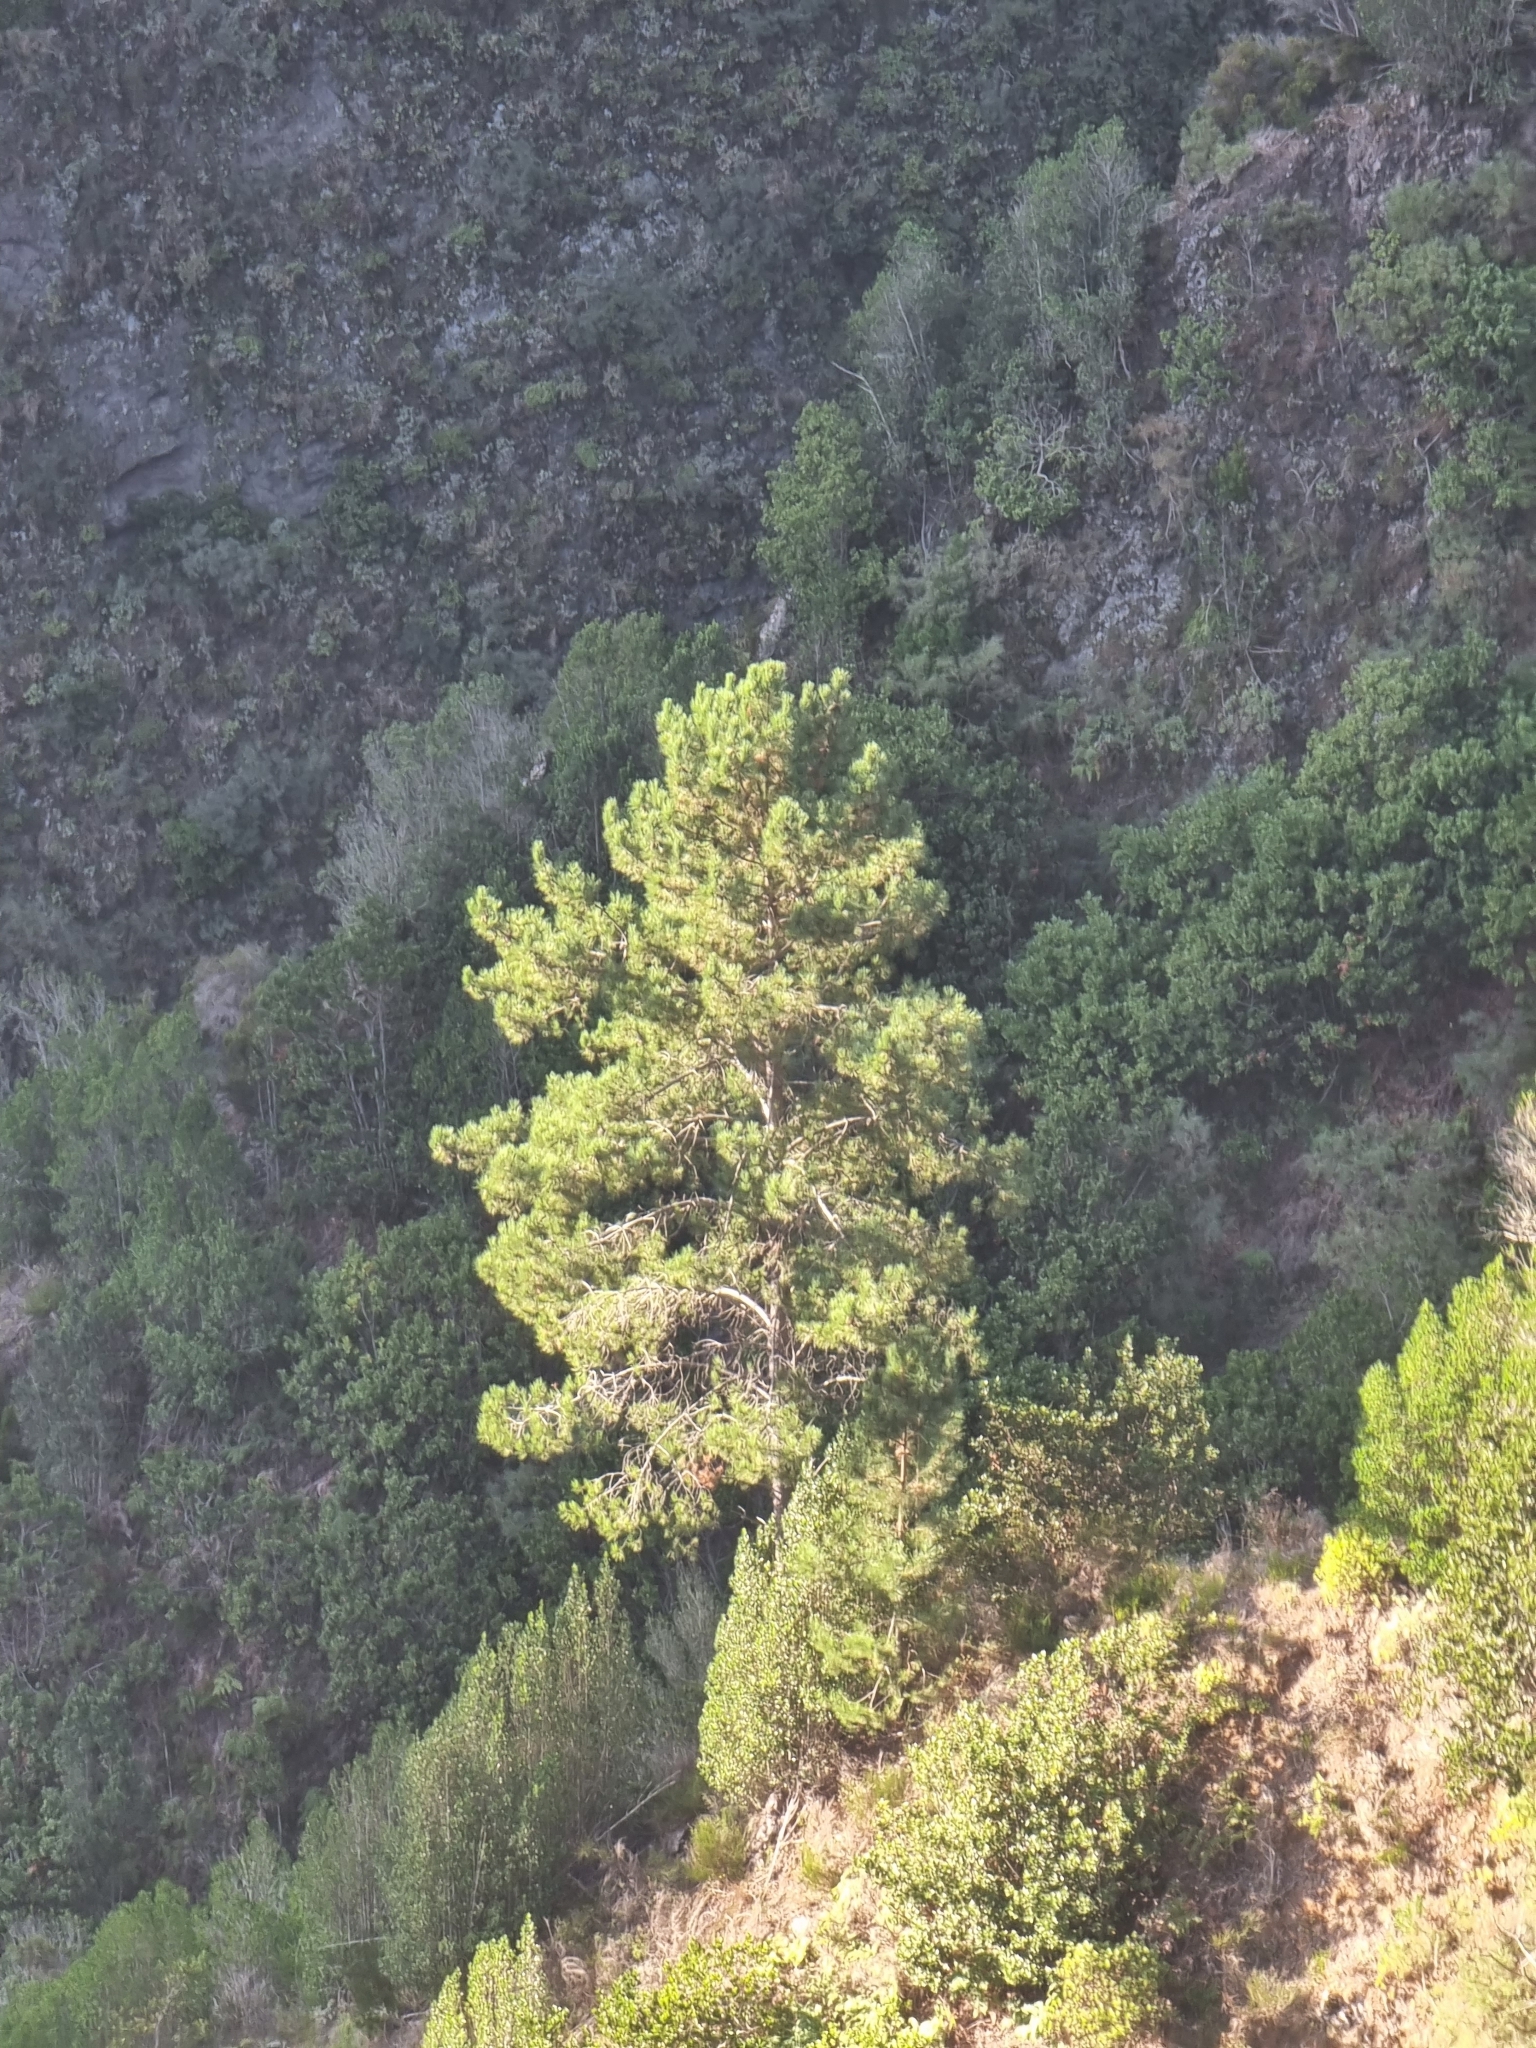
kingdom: Plantae
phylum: Tracheophyta
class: Pinopsida
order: Pinales
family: Pinaceae
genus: Pinus
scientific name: Pinus pinaster
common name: Maritime pine
